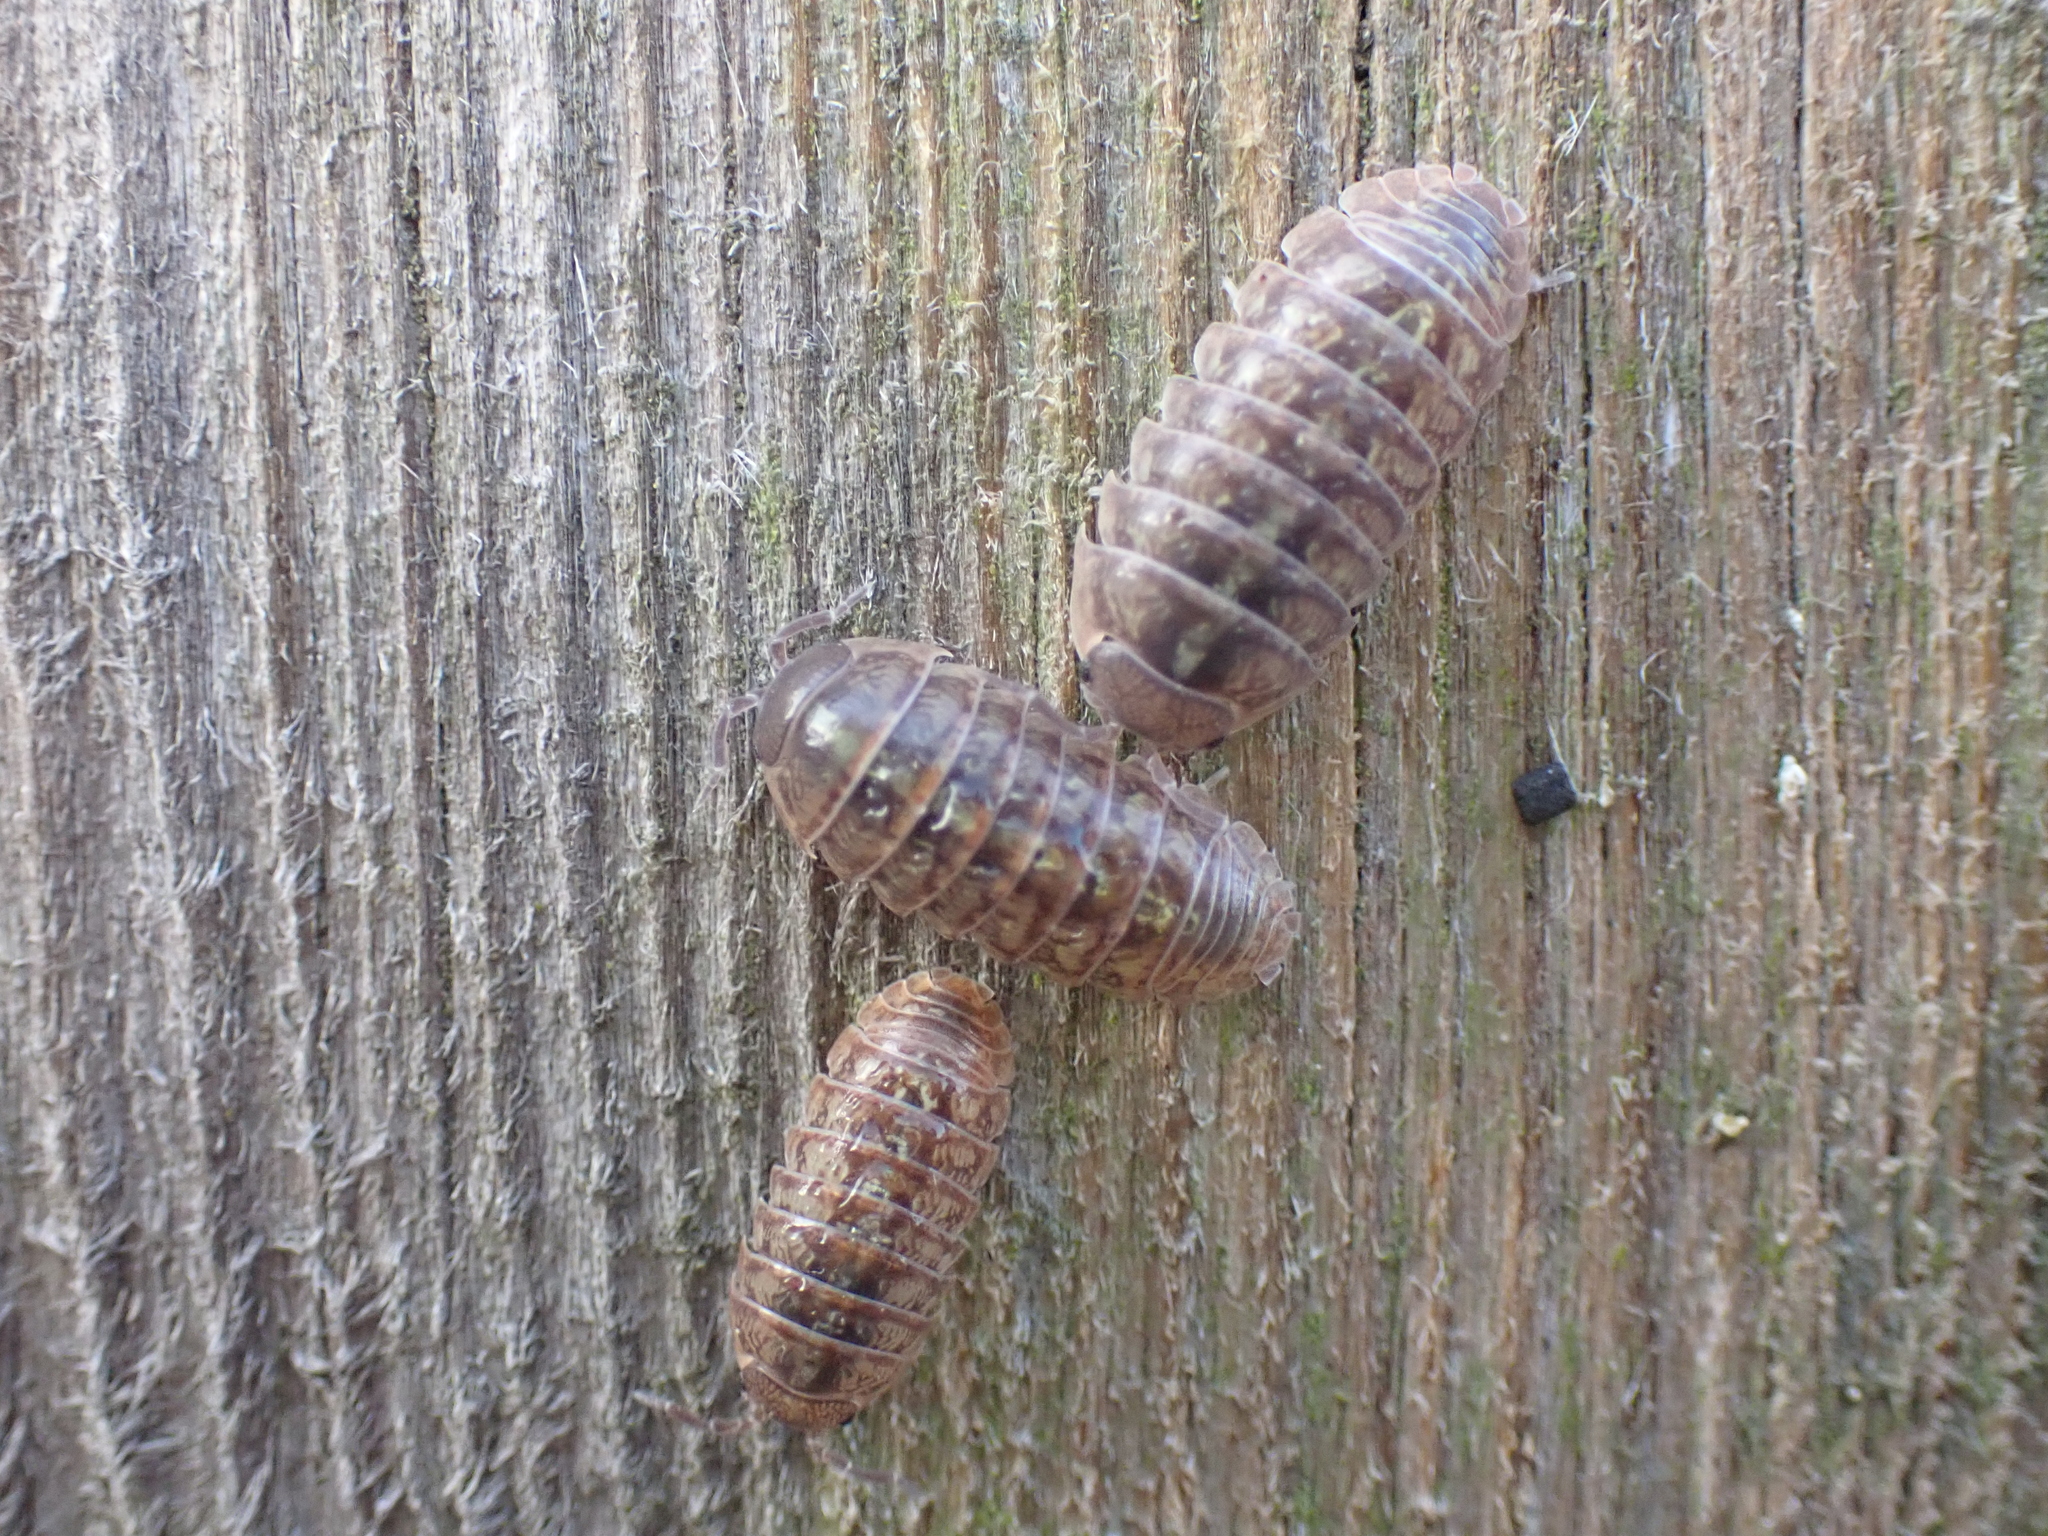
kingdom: Animalia
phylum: Arthropoda
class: Malacostraca
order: Isopoda
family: Armadillidiidae
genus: Armadillidium
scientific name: Armadillidium vulgare
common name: Common pill woodlouse
